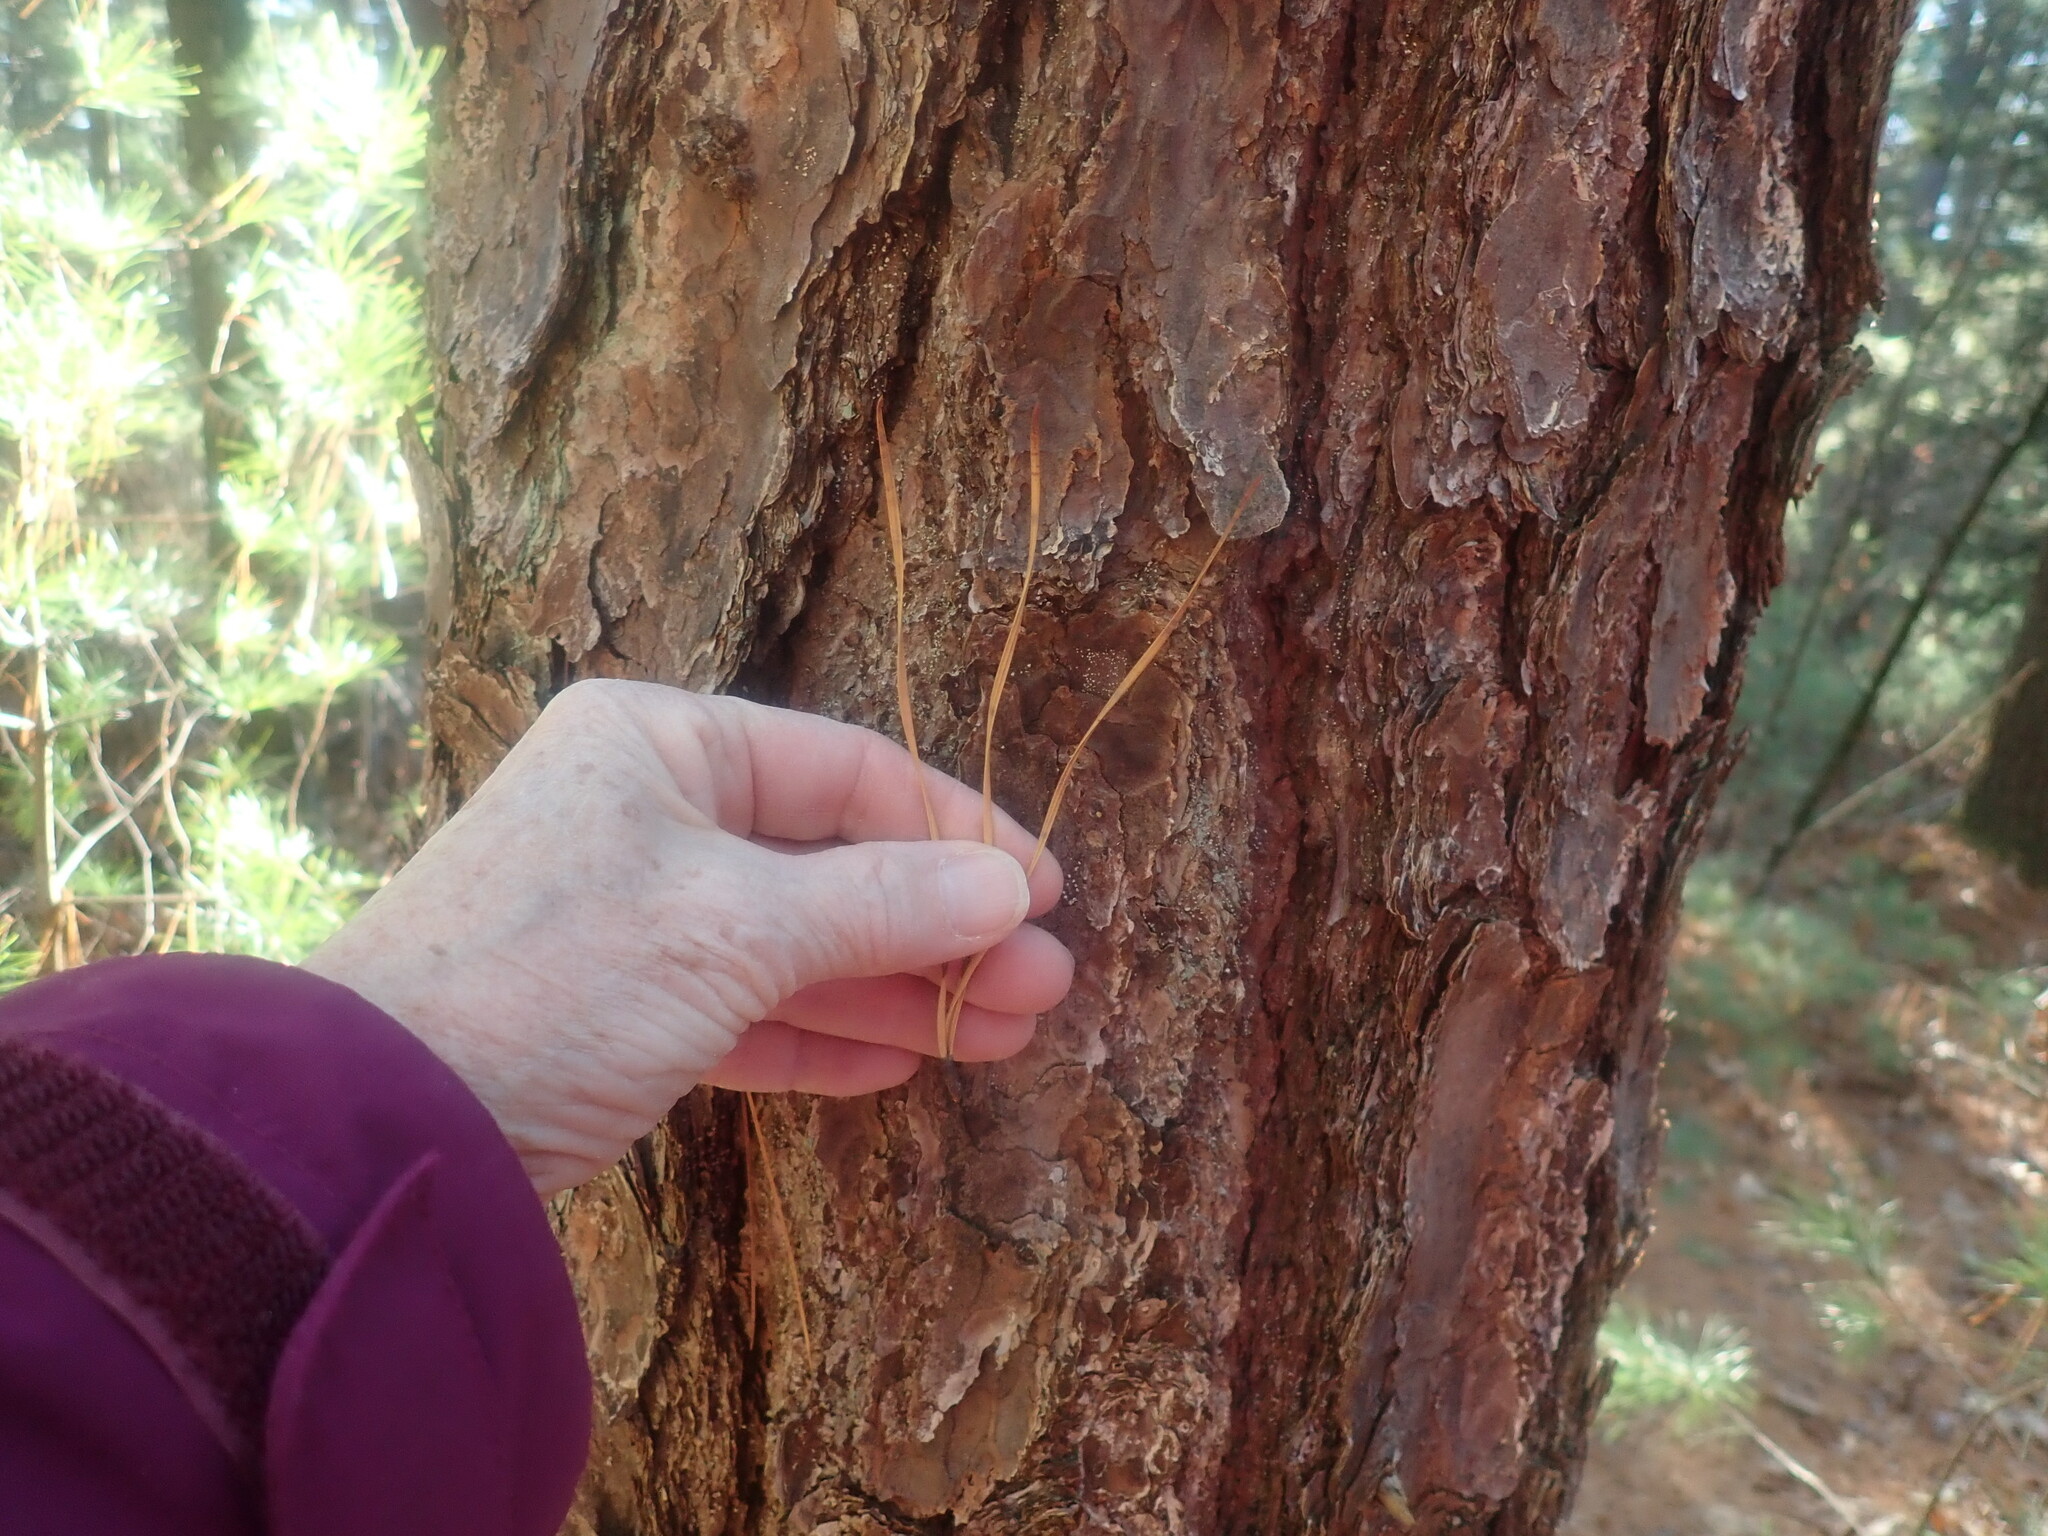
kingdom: Plantae
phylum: Tracheophyta
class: Pinopsida
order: Pinales
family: Pinaceae
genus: Pinus
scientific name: Pinus rigida
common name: Pitch pine
